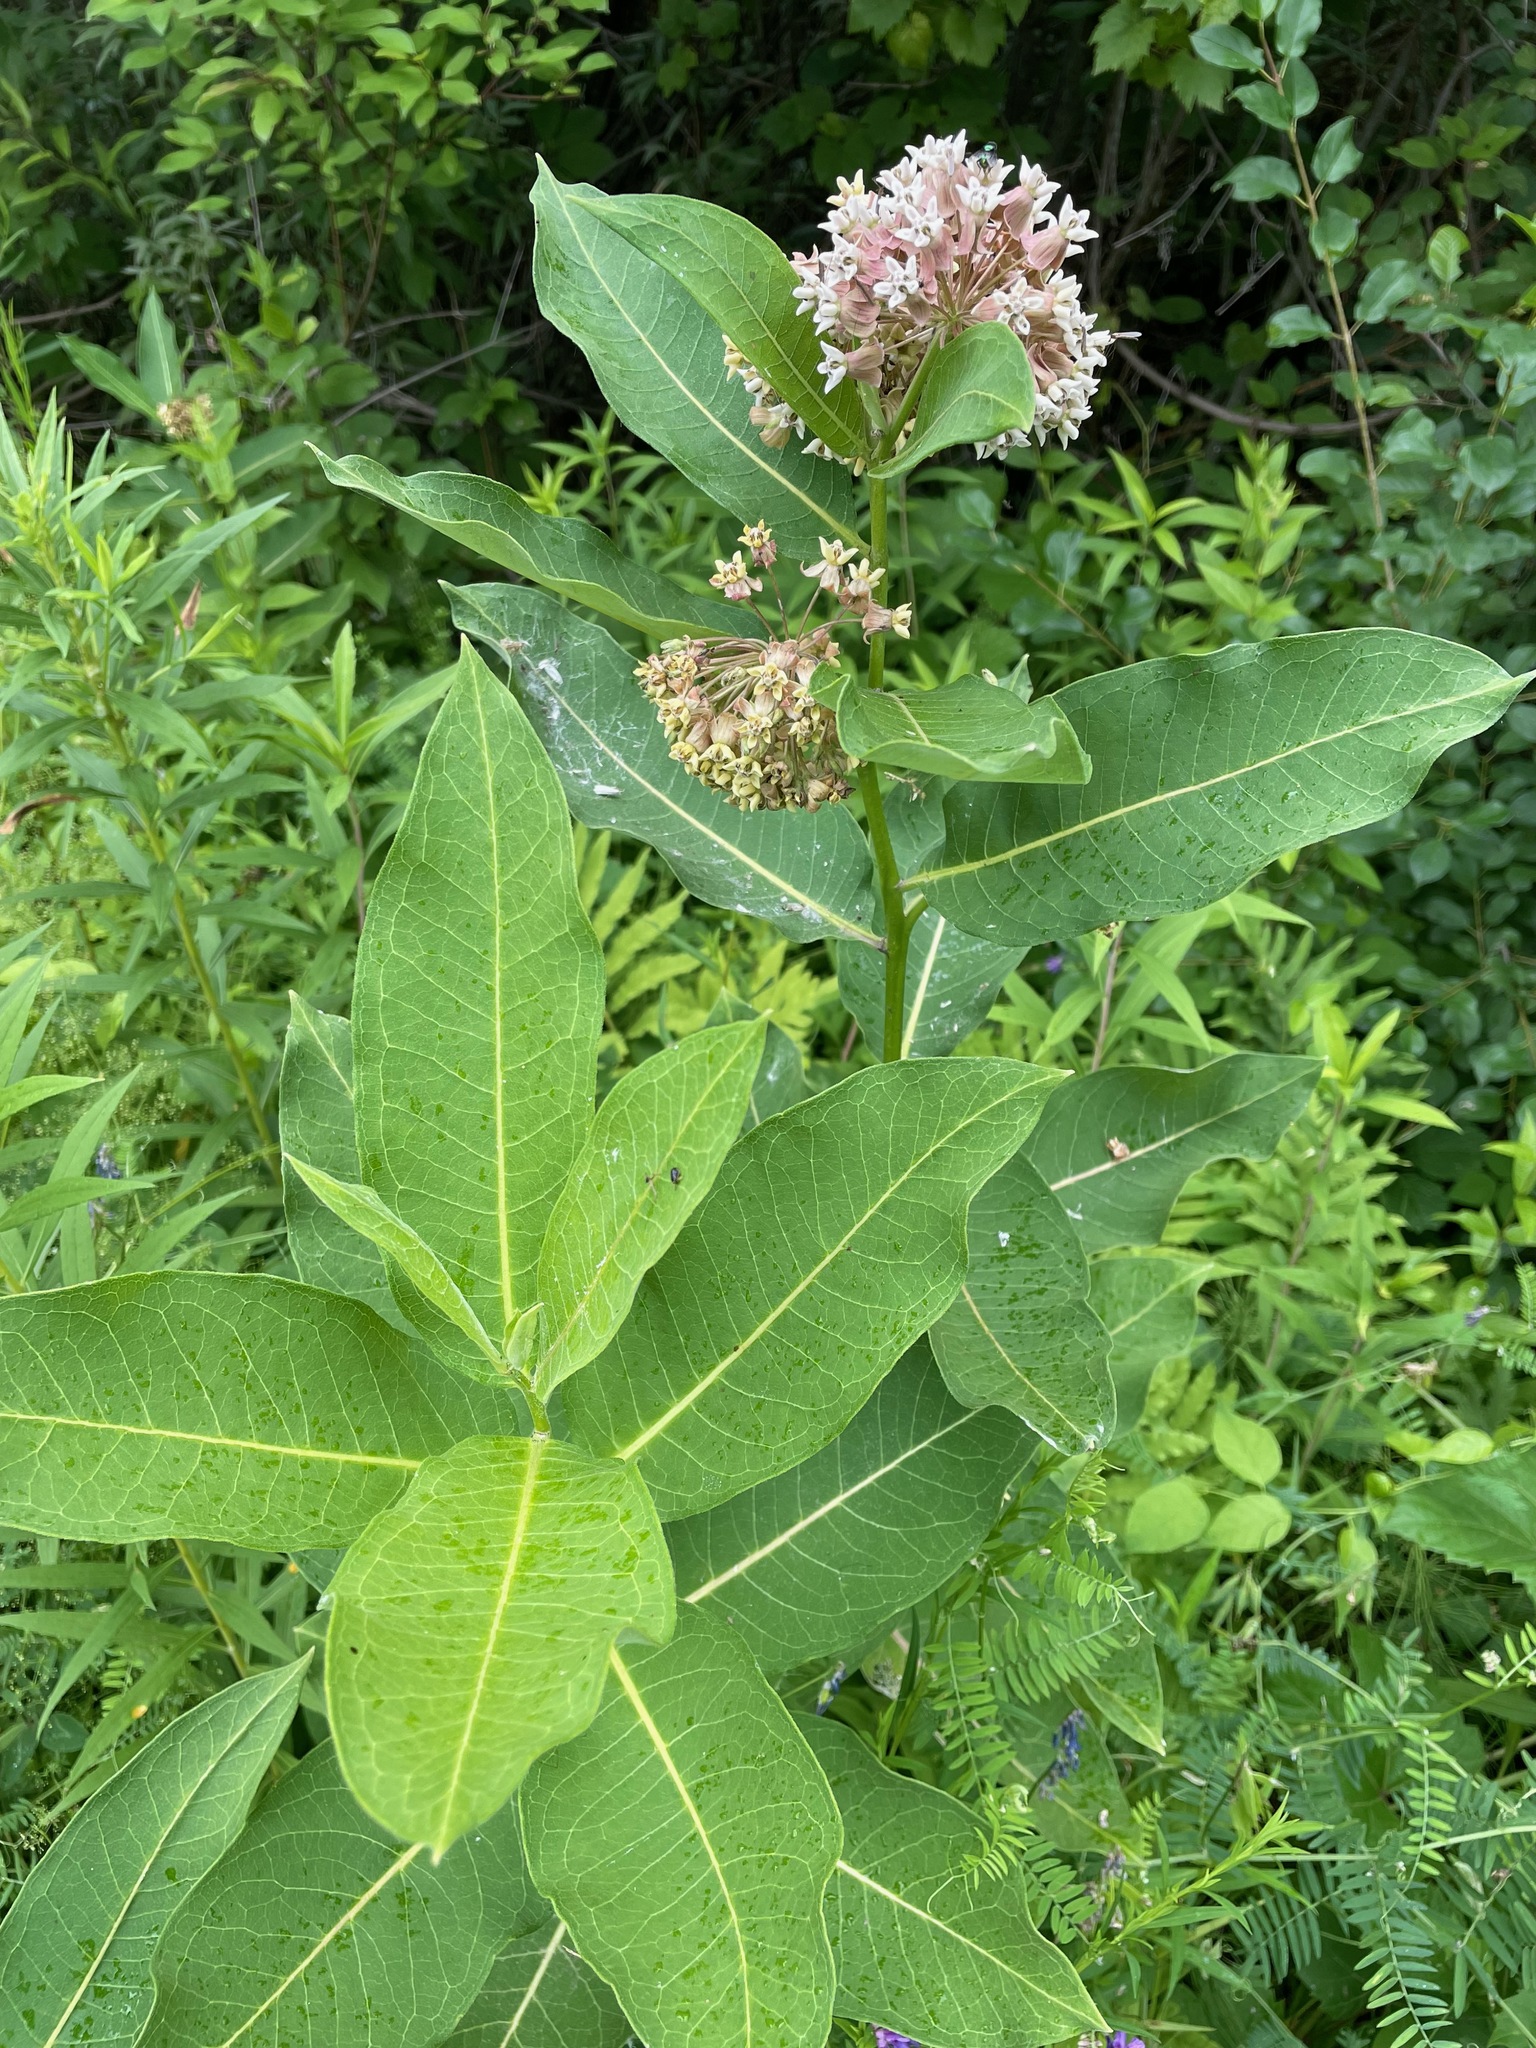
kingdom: Plantae
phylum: Tracheophyta
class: Magnoliopsida
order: Gentianales
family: Apocynaceae
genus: Asclepias
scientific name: Asclepias syriaca
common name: Common milkweed
